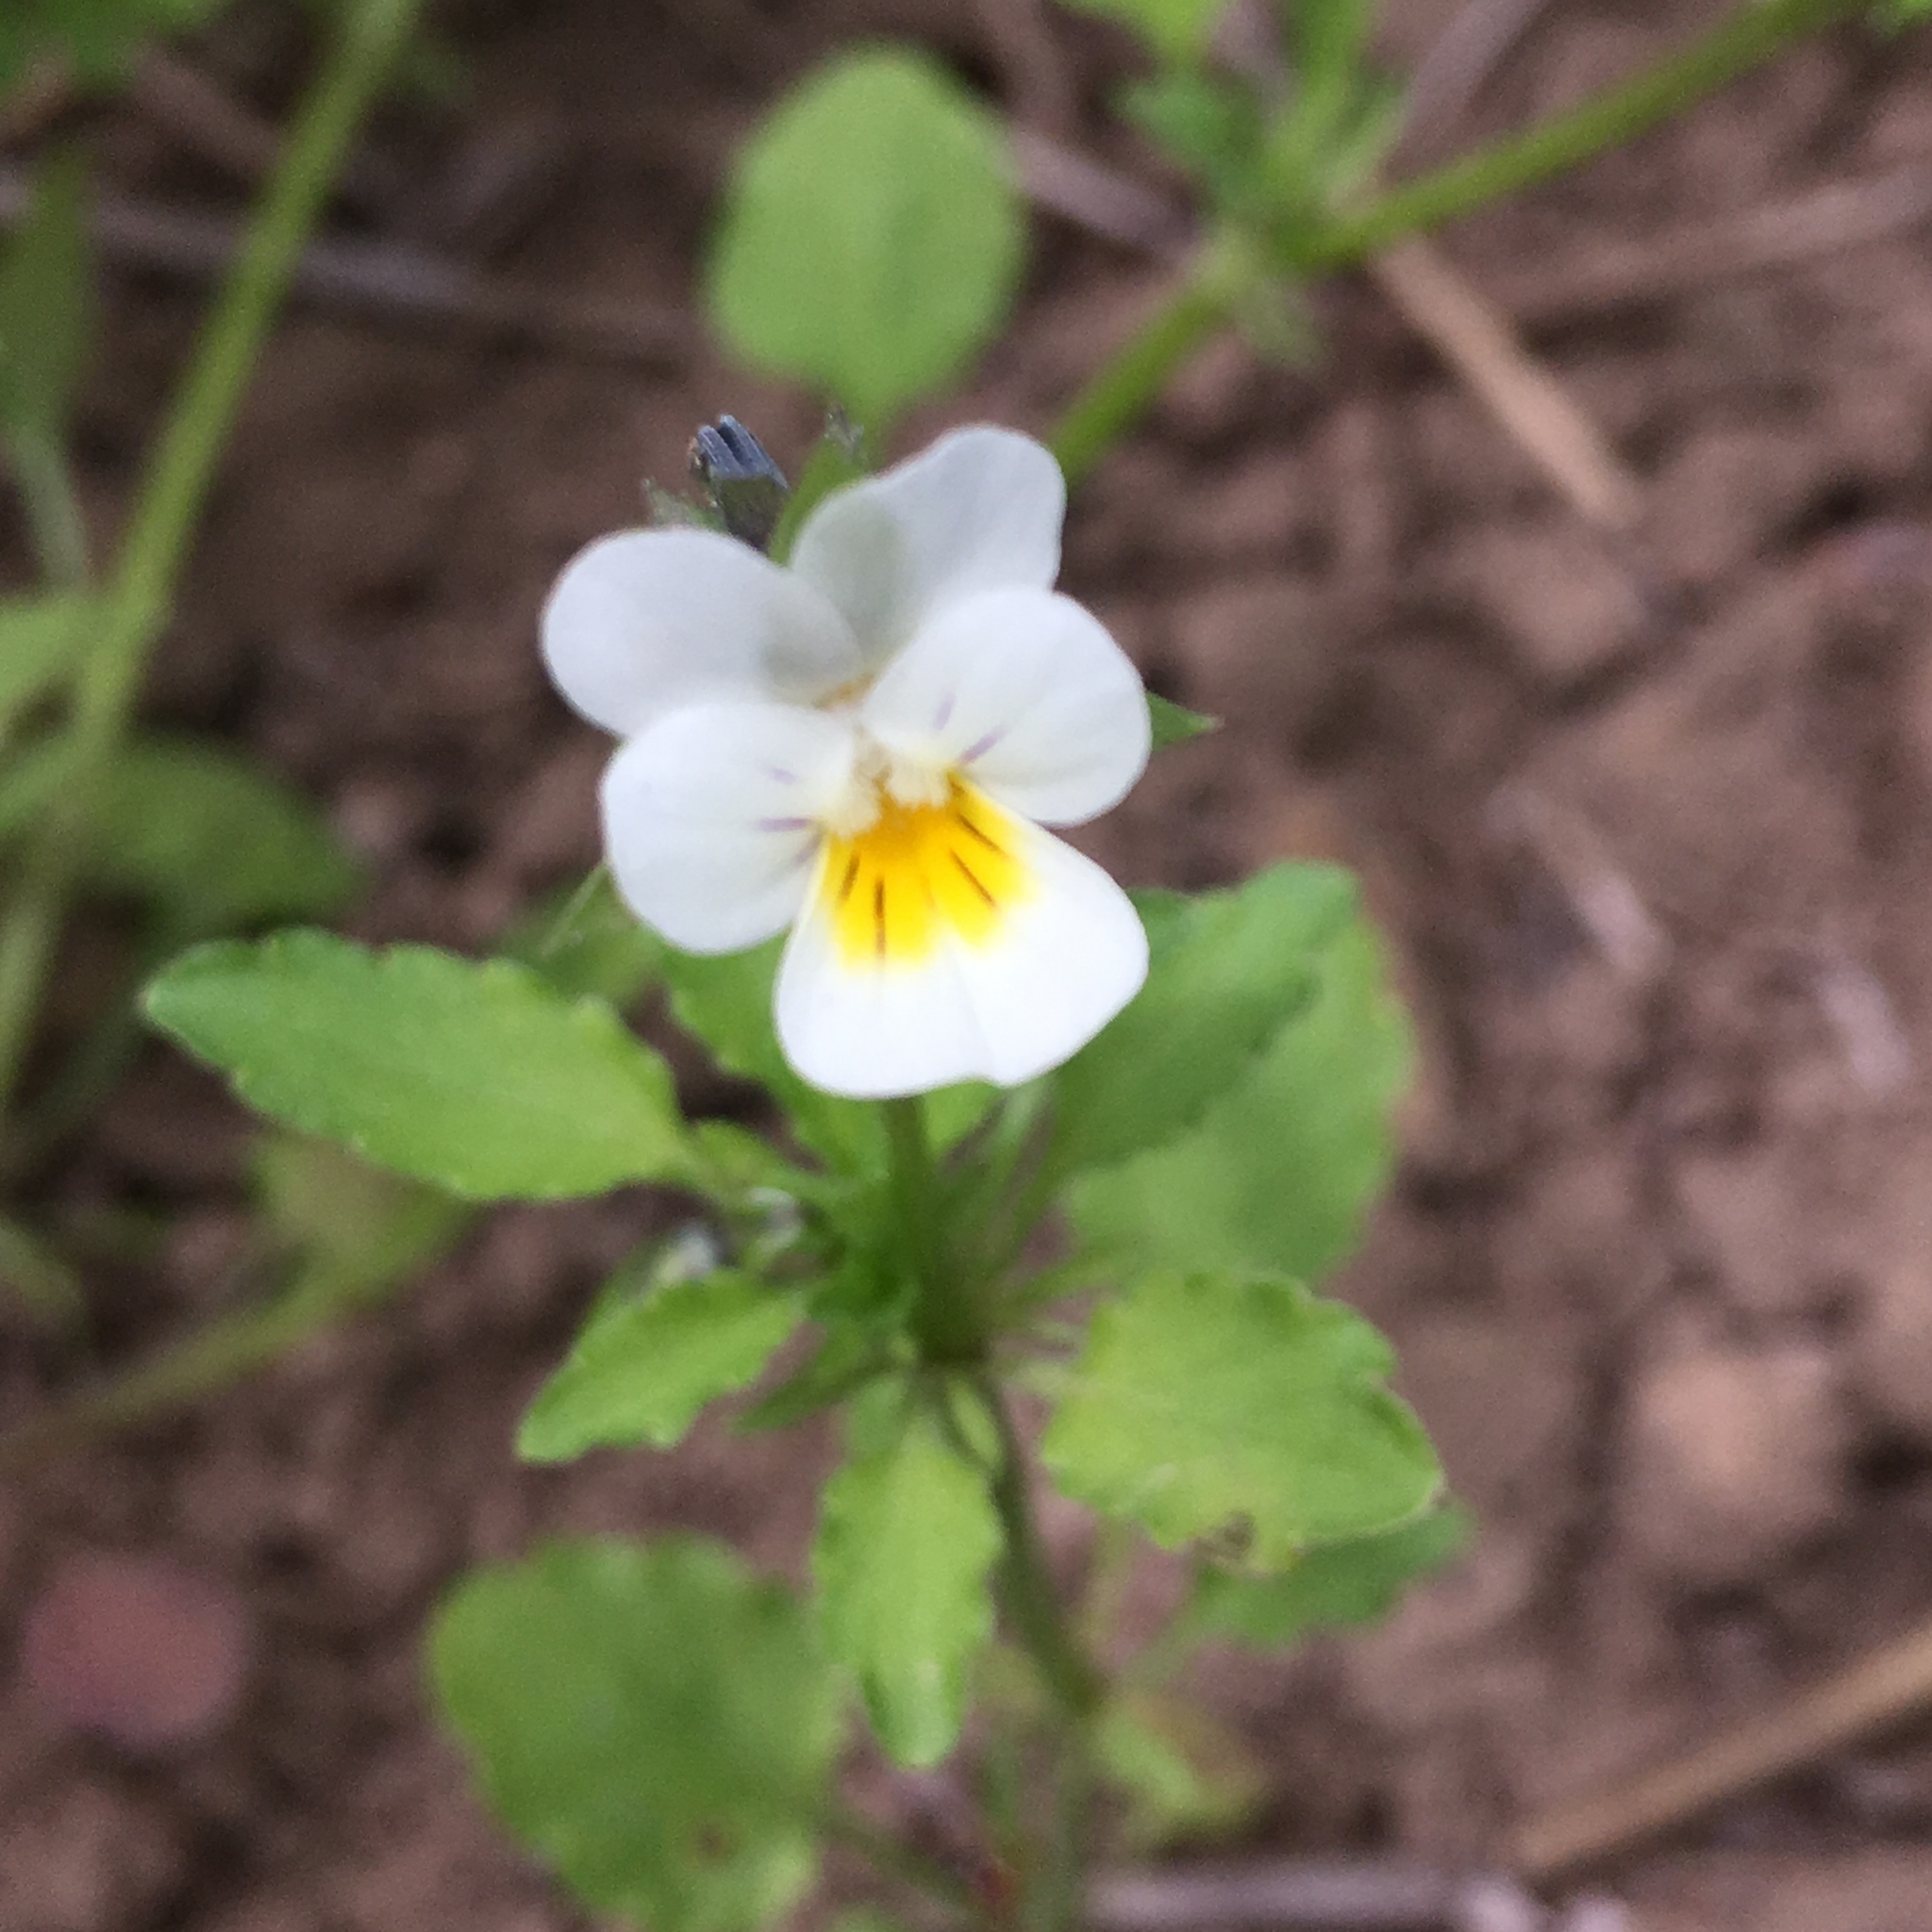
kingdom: Plantae
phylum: Tracheophyta
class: Magnoliopsida
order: Malpighiales
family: Violaceae
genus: Viola
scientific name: Viola arvensis
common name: Field pansy
